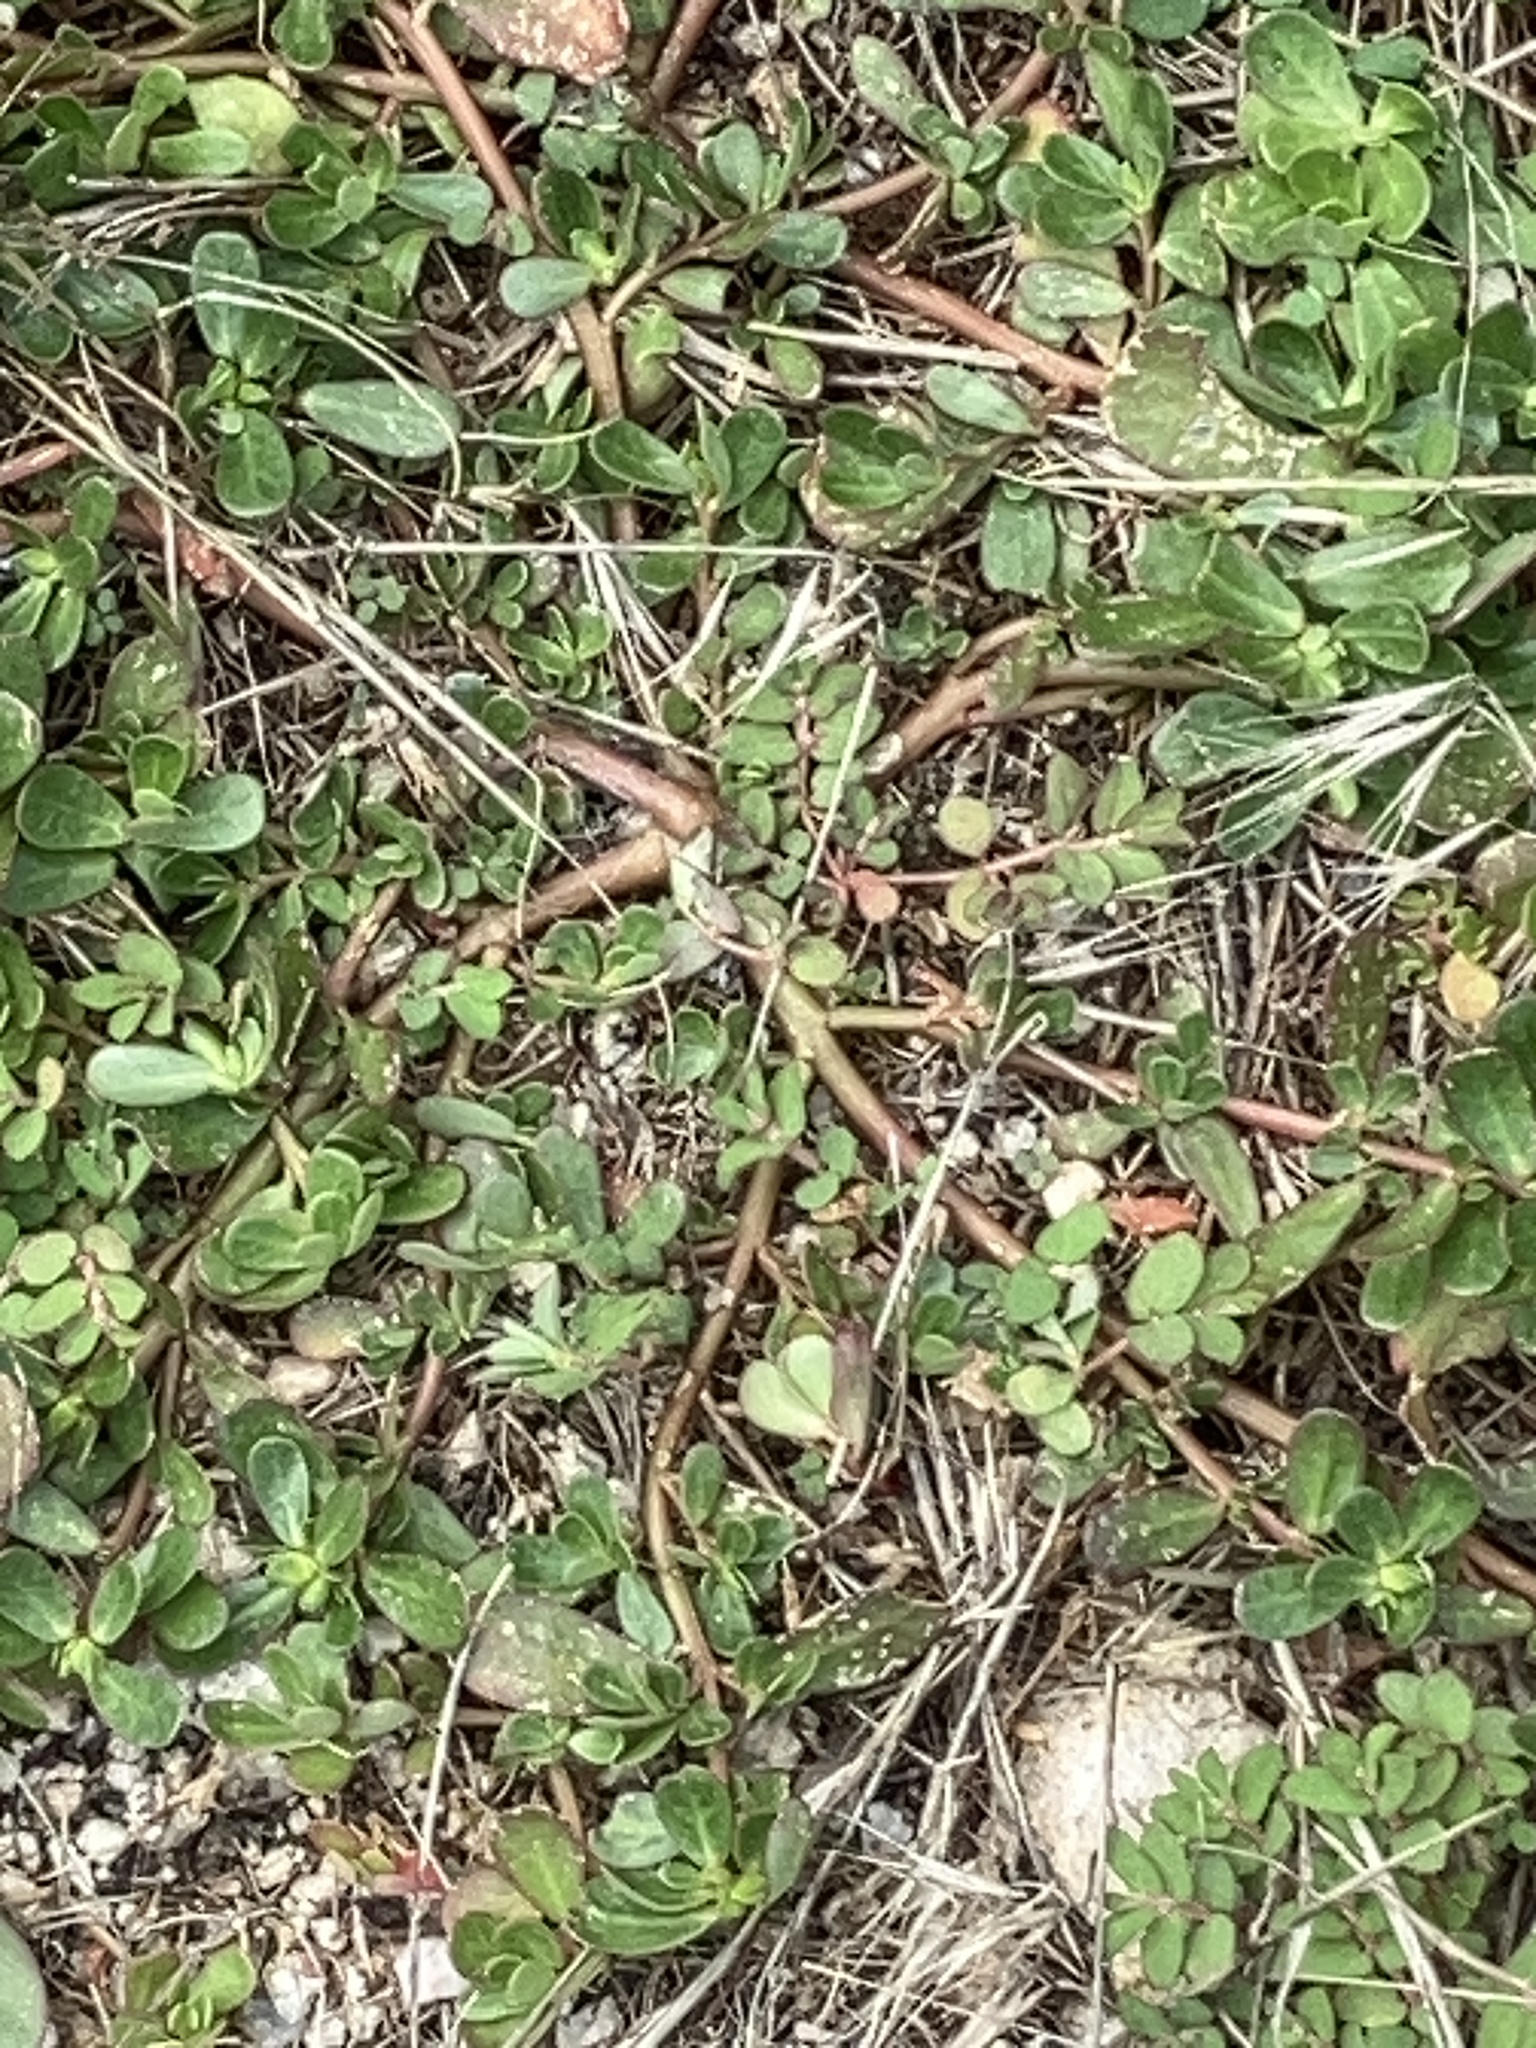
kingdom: Plantae
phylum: Tracheophyta
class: Magnoliopsida
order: Caryophyllales
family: Portulacaceae
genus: Portulaca
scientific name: Portulaca oleracea
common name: Common purslane
